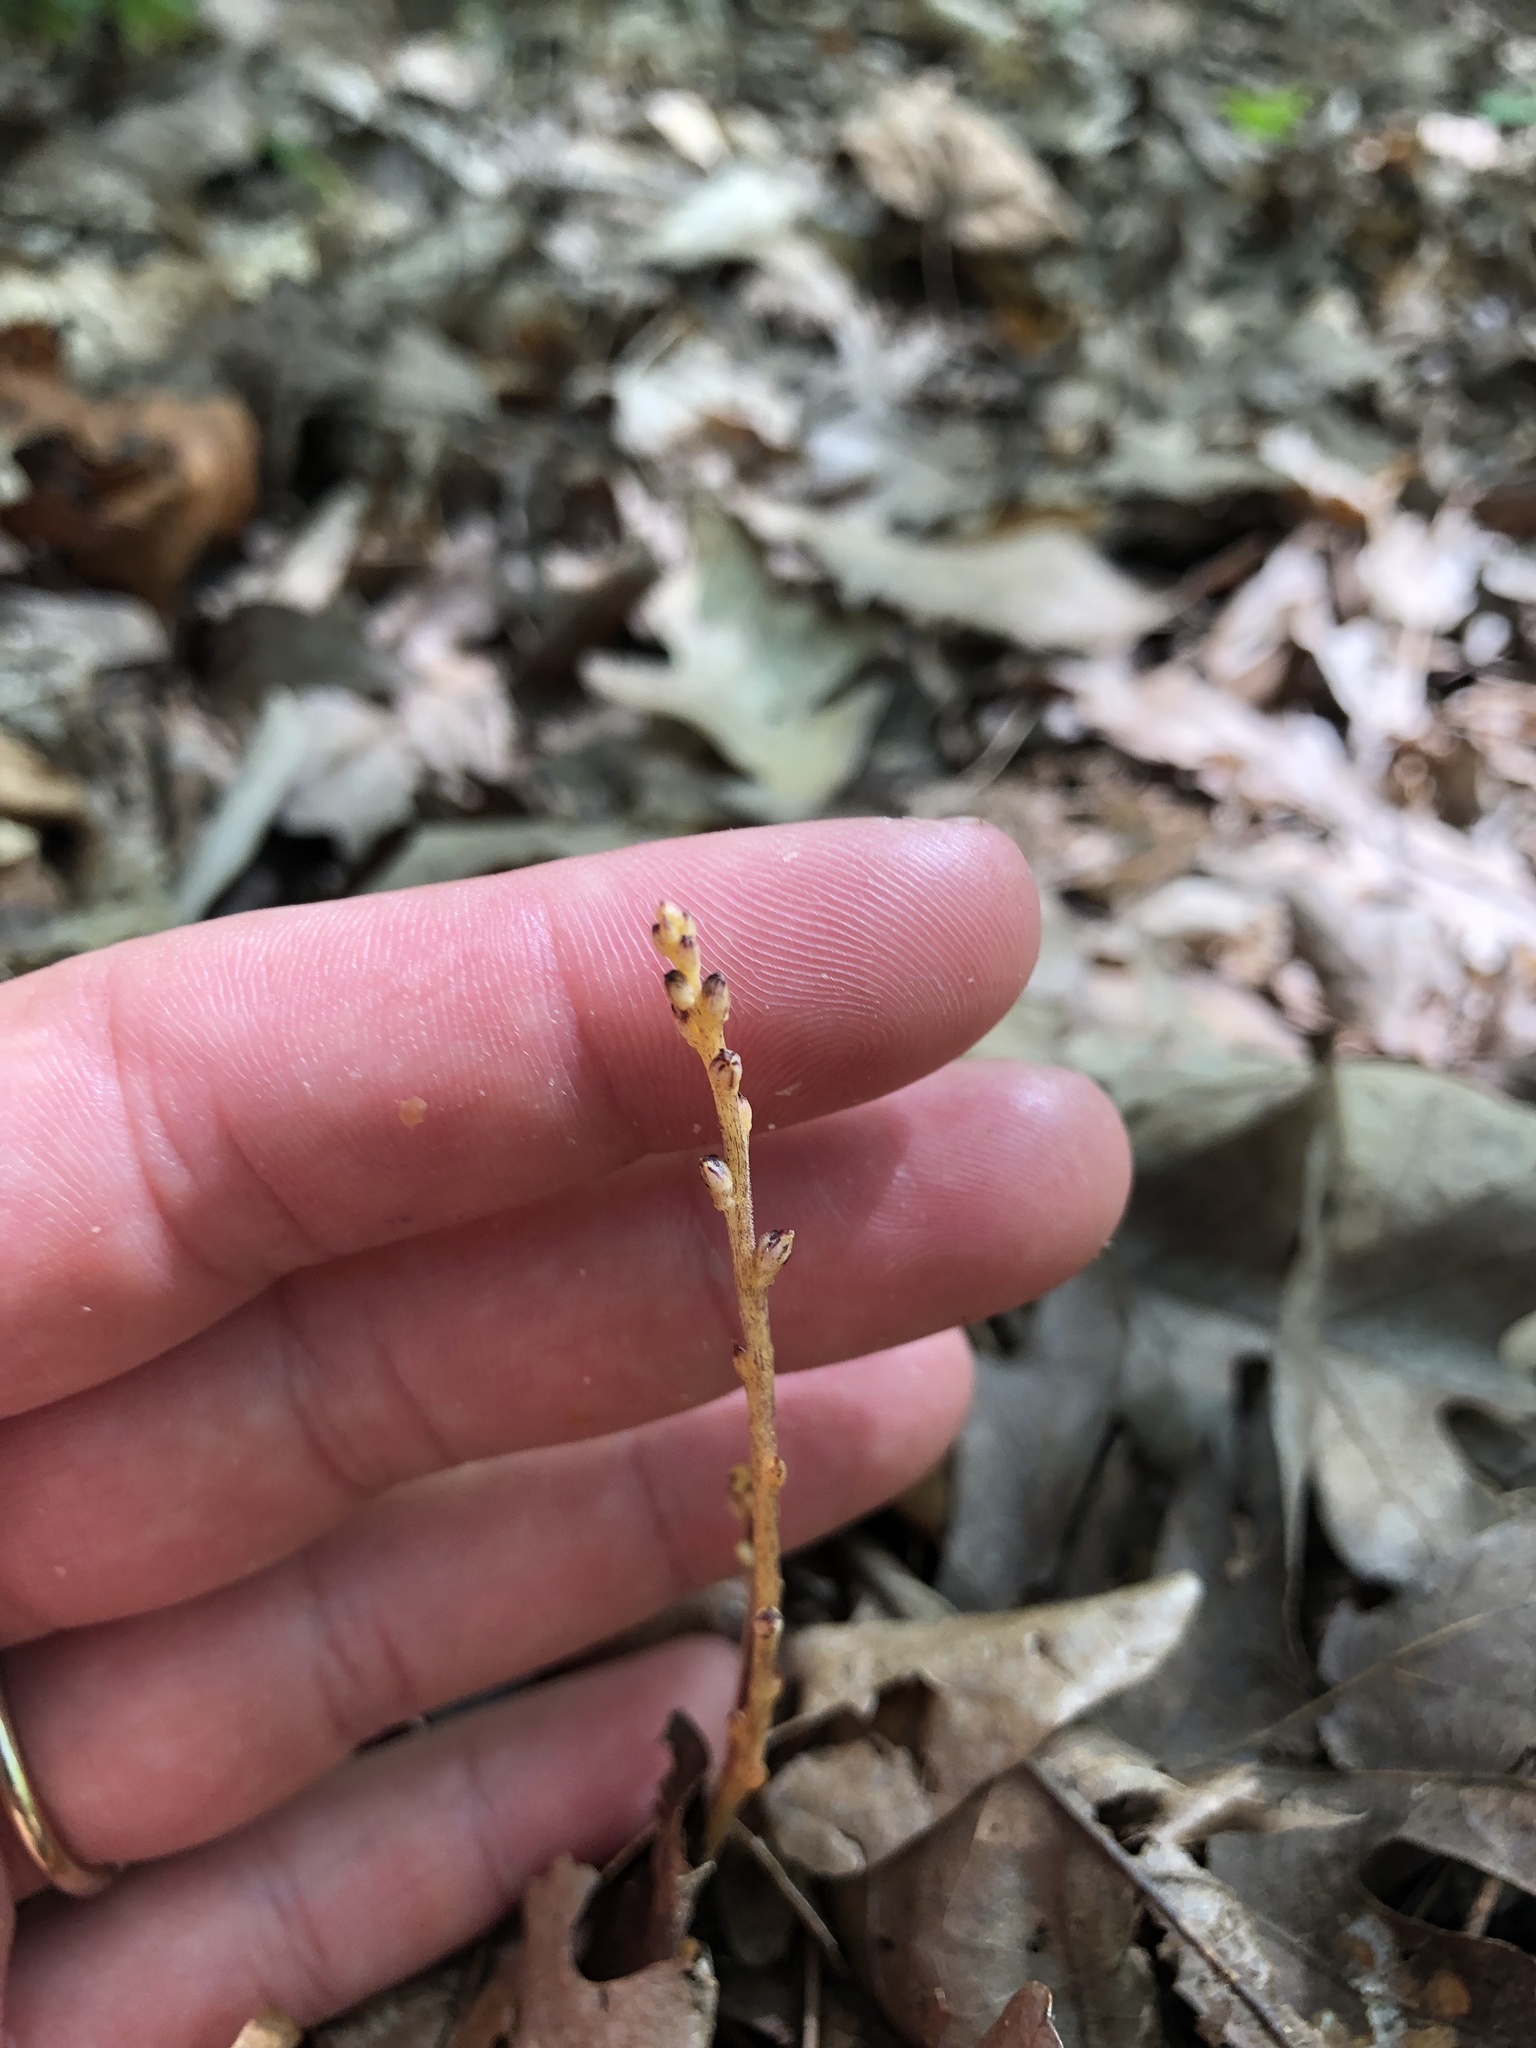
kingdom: Plantae
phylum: Tracheophyta
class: Magnoliopsida
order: Lamiales
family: Orobanchaceae
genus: Epifagus
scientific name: Epifagus virginiana
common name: Beechdrops
